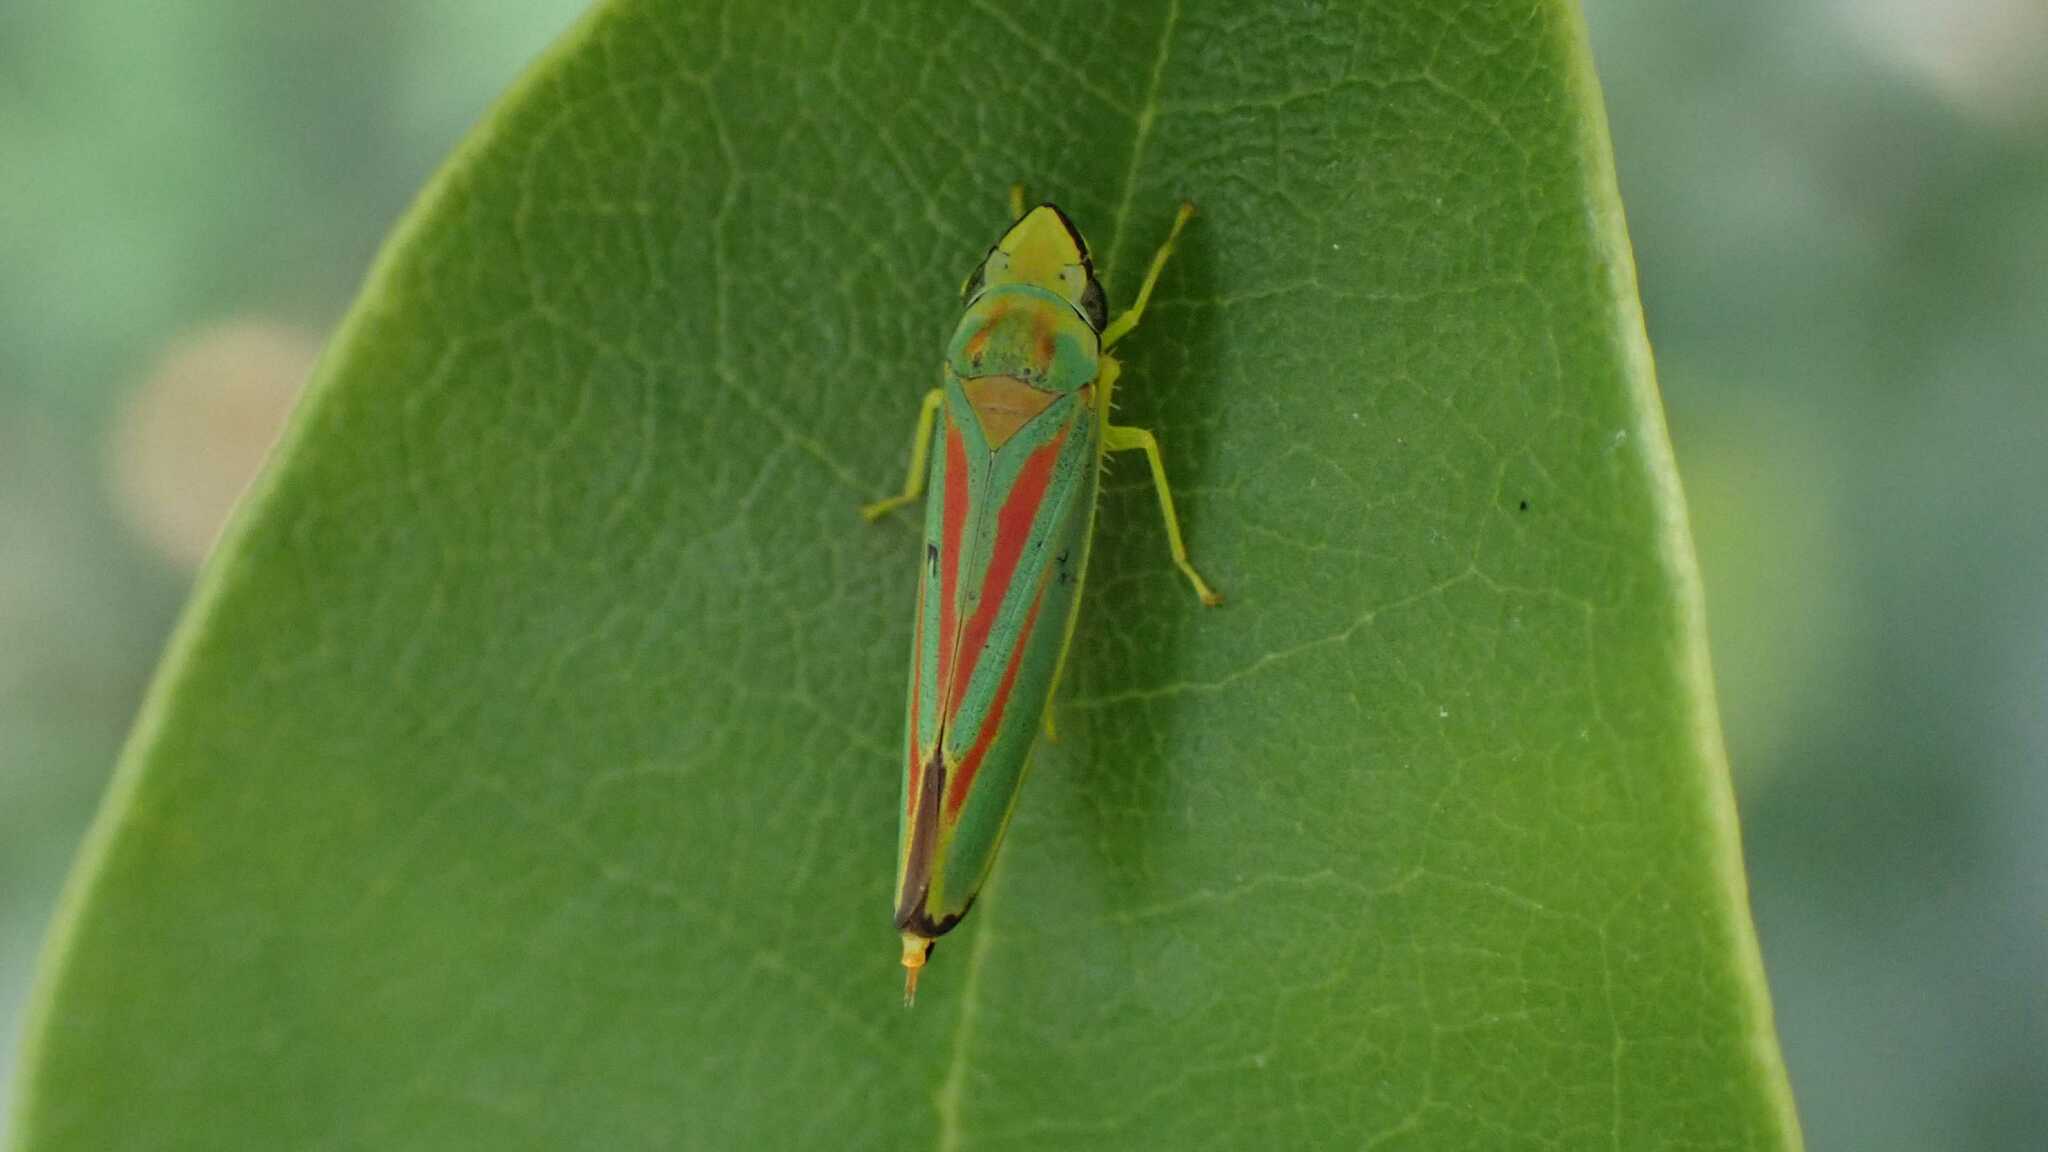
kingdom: Animalia
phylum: Arthropoda
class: Insecta
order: Hemiptera
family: Cicadellidae
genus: Graphocephala
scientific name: Graphocephala fennahi
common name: Rhododendron leafhopper
